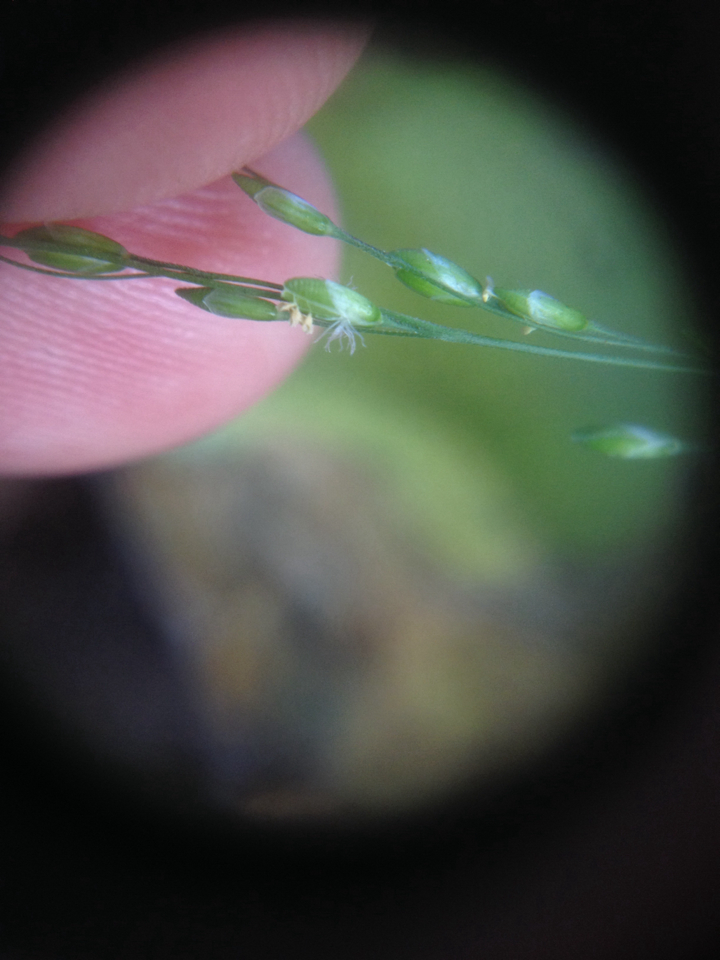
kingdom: Plantae
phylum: Tracheophyta
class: Liliopsida
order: Poales
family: Poaceae
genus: Ehrharta
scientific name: Ehrharta erecta
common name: Panic veldtgrass
